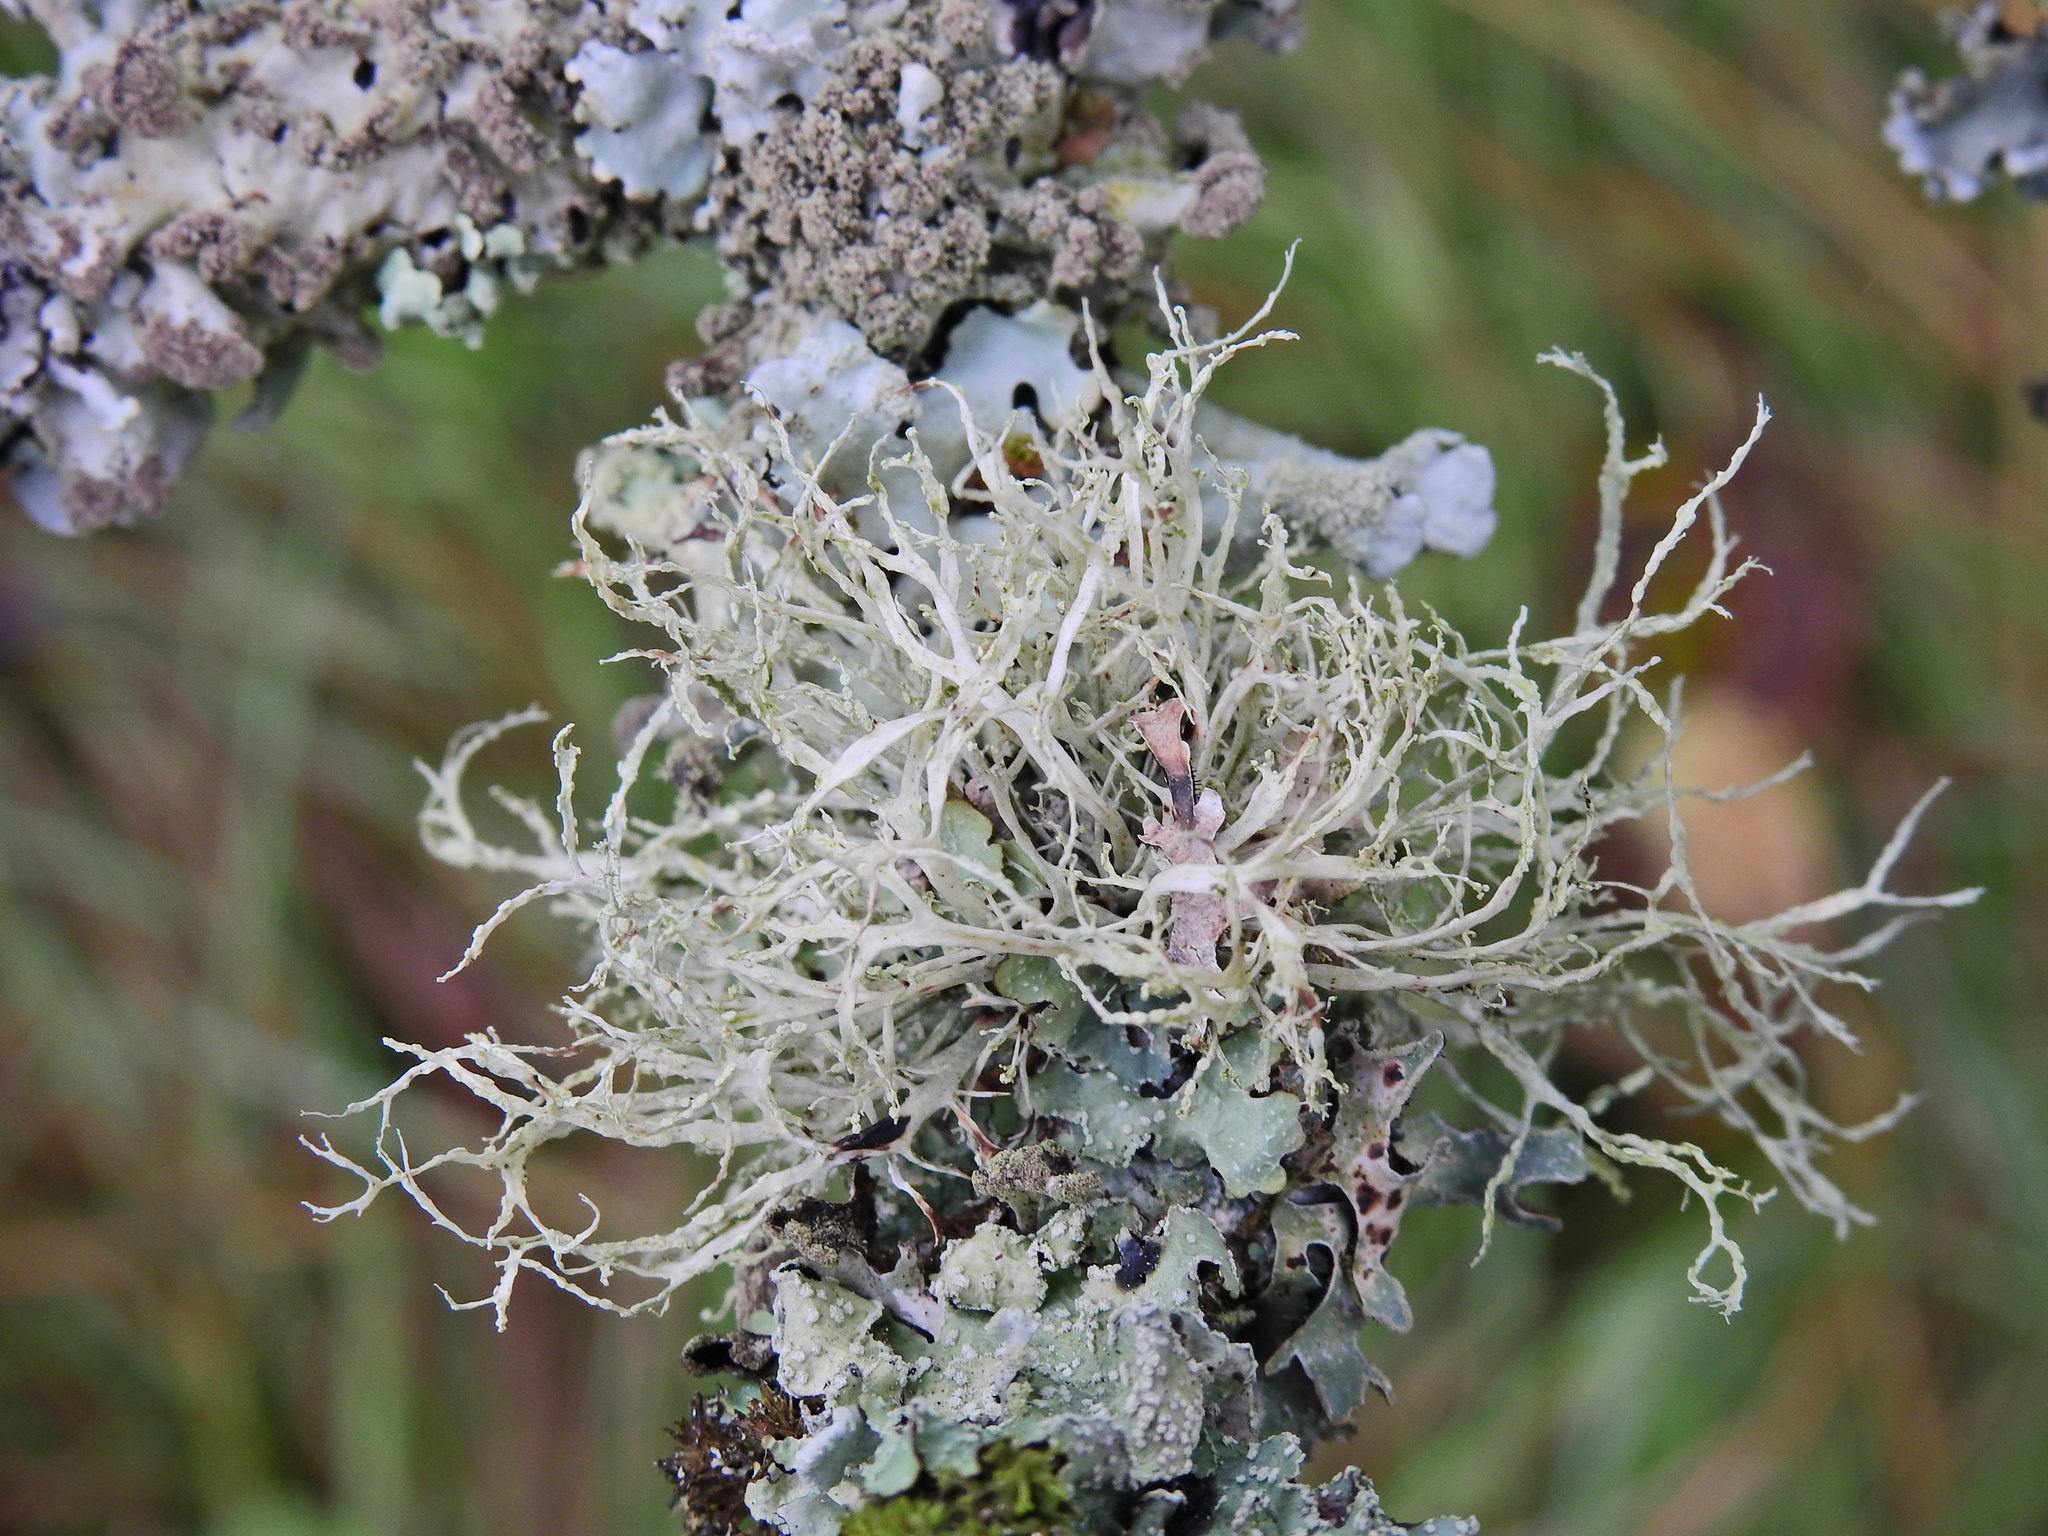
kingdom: Fungi
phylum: Ascomycota
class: Lecanoromycetes
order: Lecanorales
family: Ramalinaceae
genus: Ramalina
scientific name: Ramalina farinacea
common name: Farinose cartilage lichen
